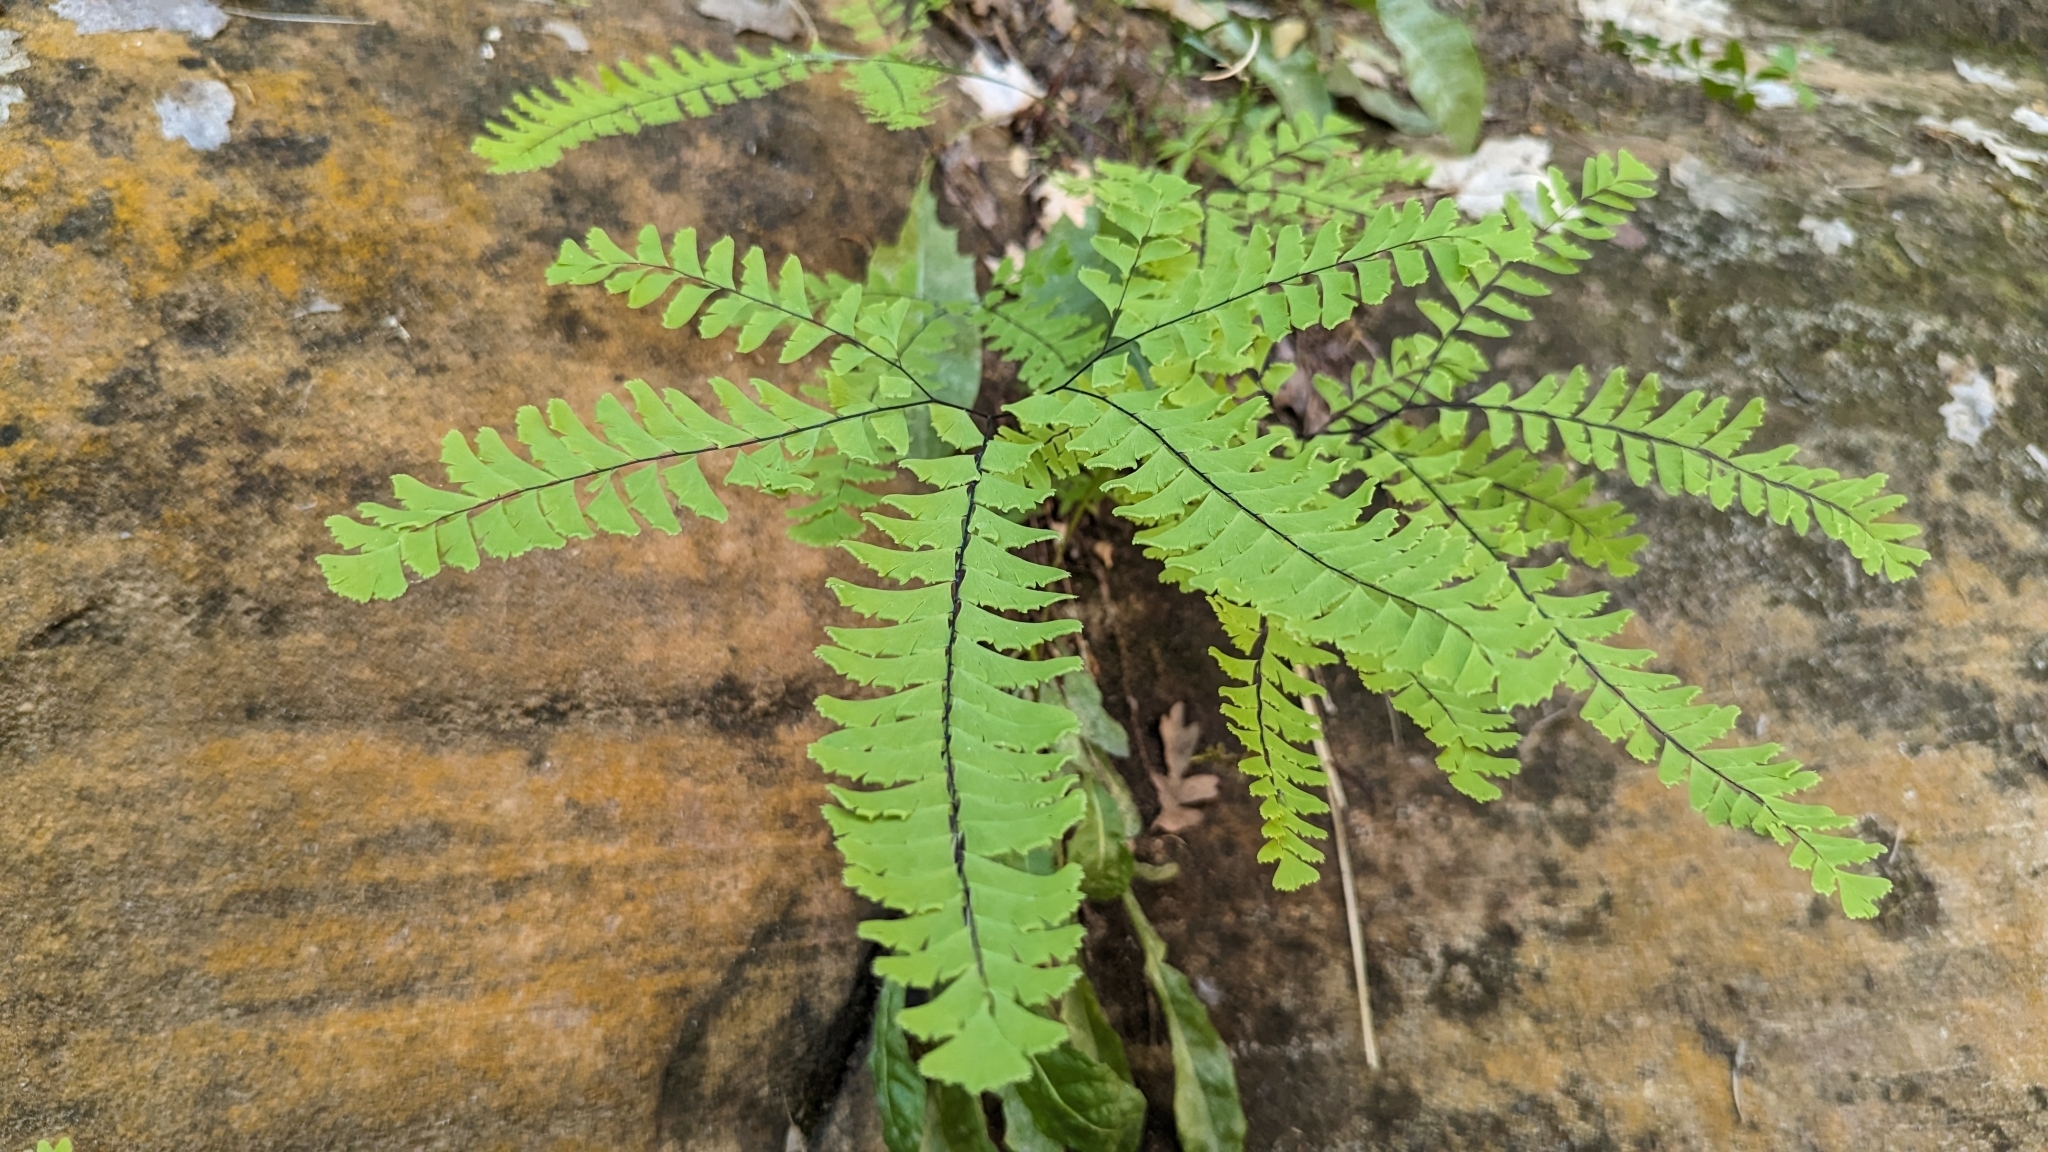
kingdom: Plantae
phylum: Tracheophyta
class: Polypodiopsida
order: Polypodiales
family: Pteridaceae
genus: Adiantum
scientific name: Adiantum aleuticum
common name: Aleutian maidenhair fern
